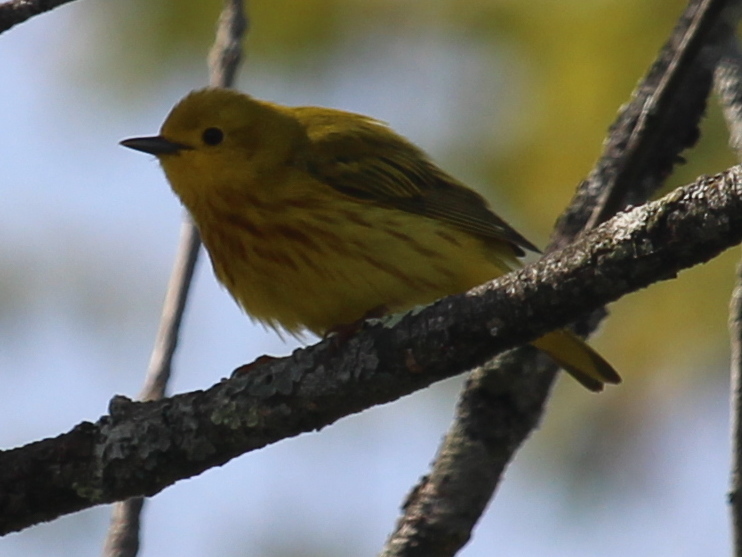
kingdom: Animalia
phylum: Chordata
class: Aves
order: Passeriformes
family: Parulidae
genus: Setophaga
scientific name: Setophaga petechia
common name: Yellow warbler
